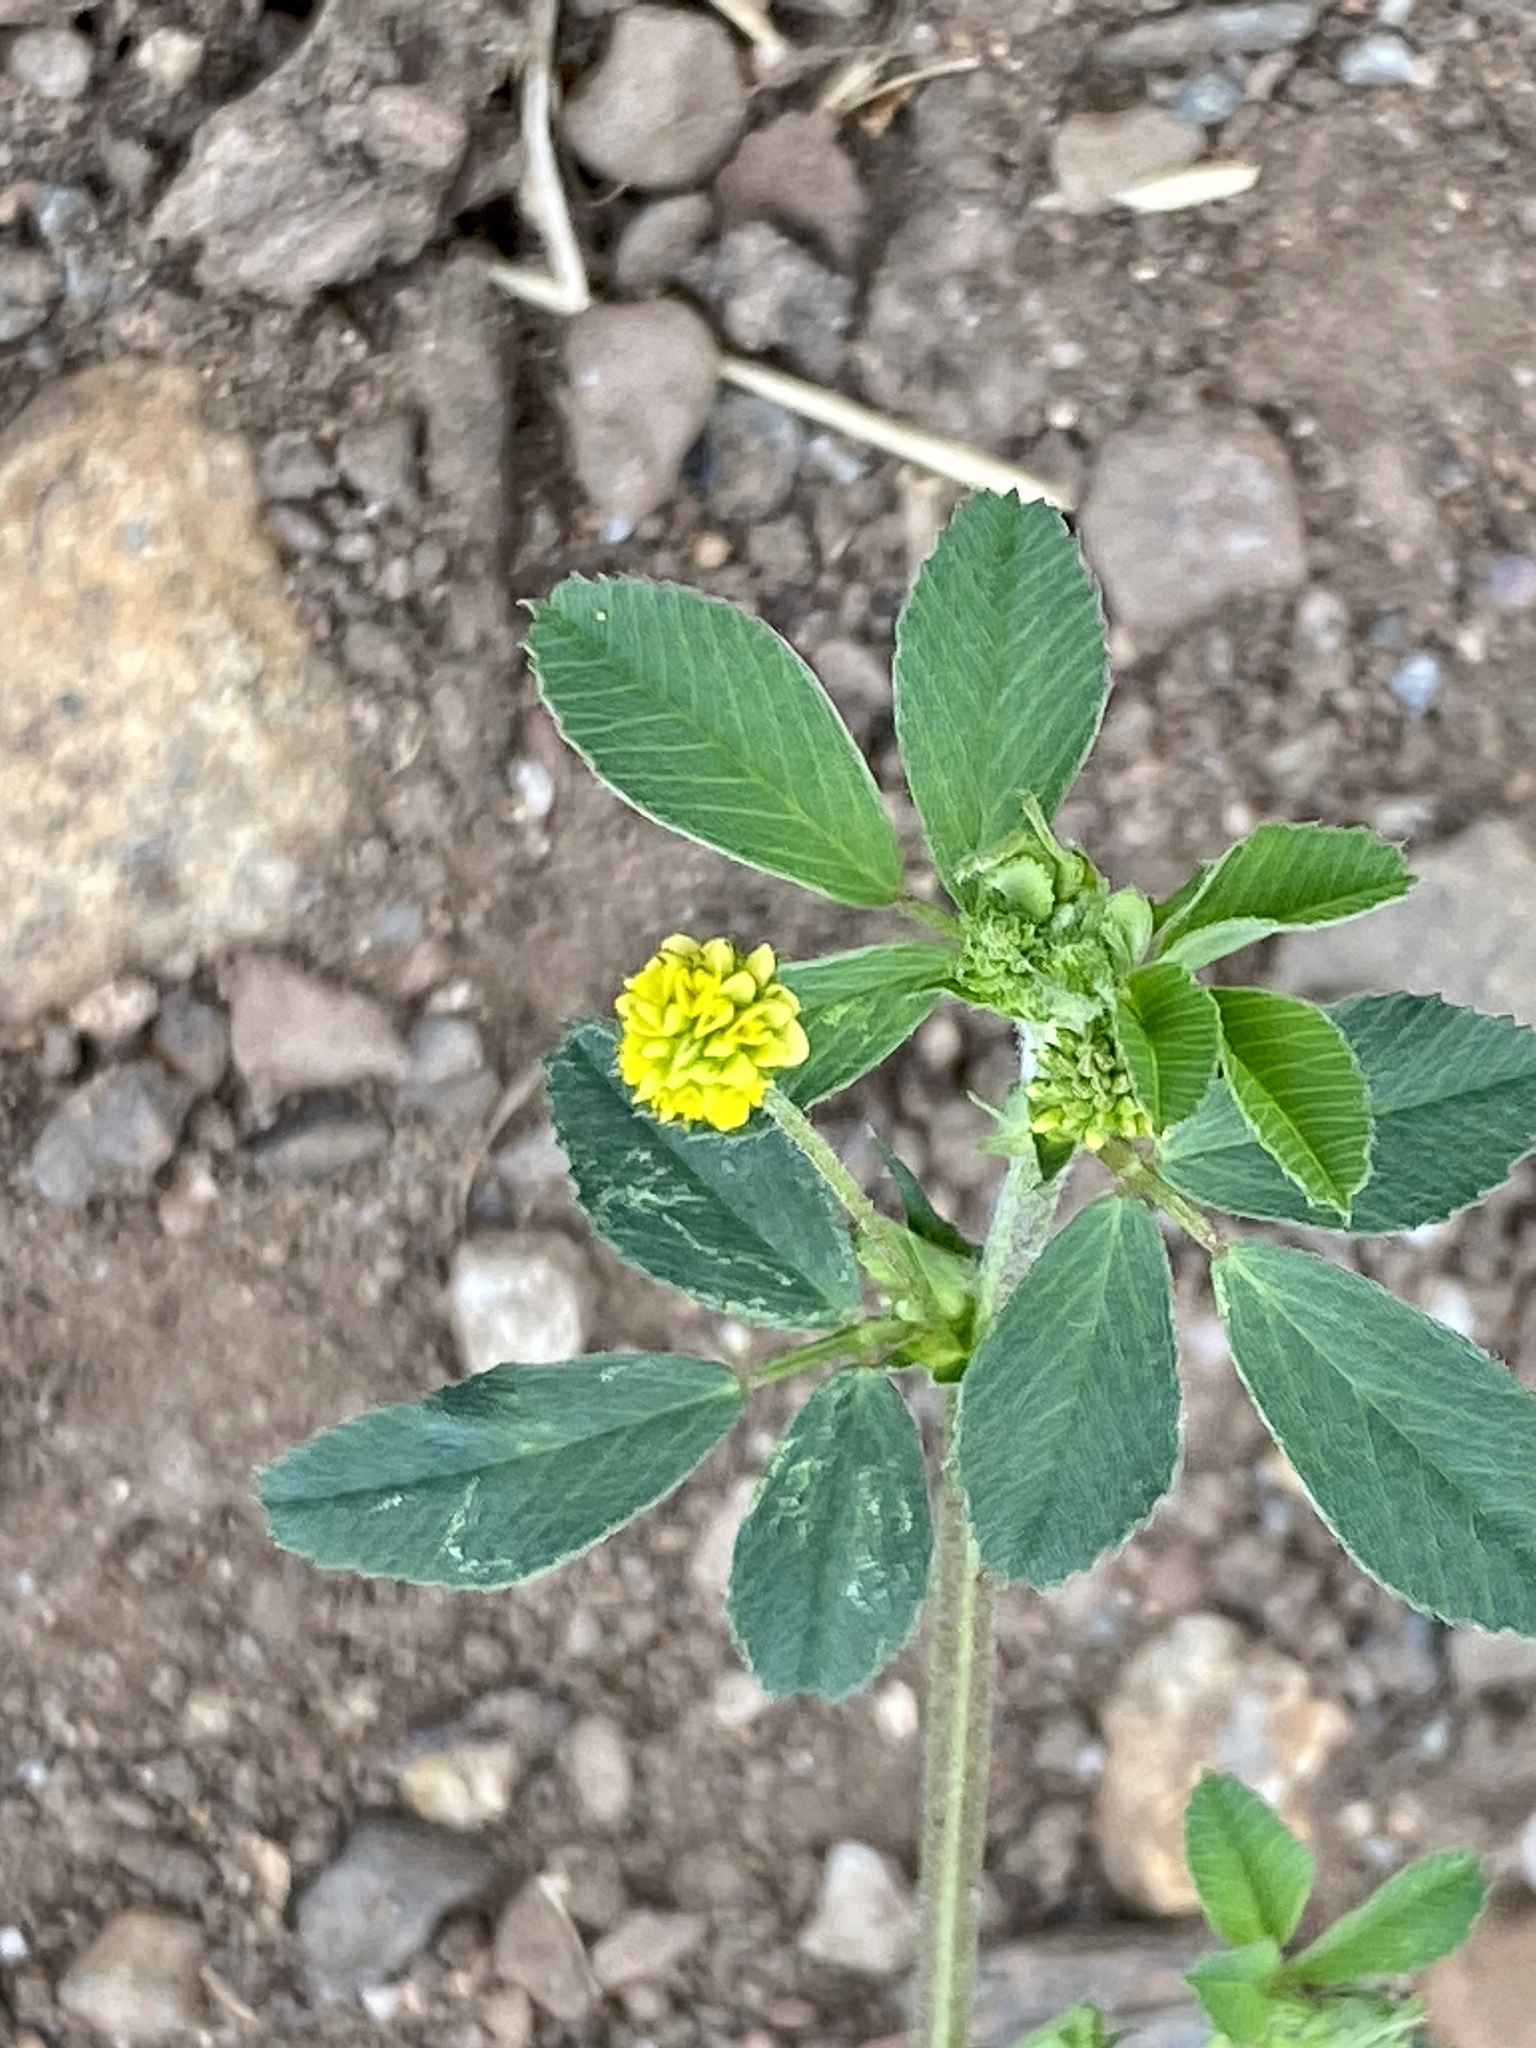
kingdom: Plantae
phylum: Tracheophyta
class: Magnoliopsida
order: Fabales
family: Fabaceae
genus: Medicago
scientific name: Medicago lupulina
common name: Black medick
